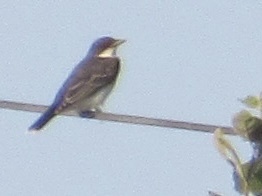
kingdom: Animalia
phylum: Chordata
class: Aves
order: Passeriformes
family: Tyrannidae
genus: Tyrannus
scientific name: Tyrannus tyrannus
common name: Eastern kingbird
